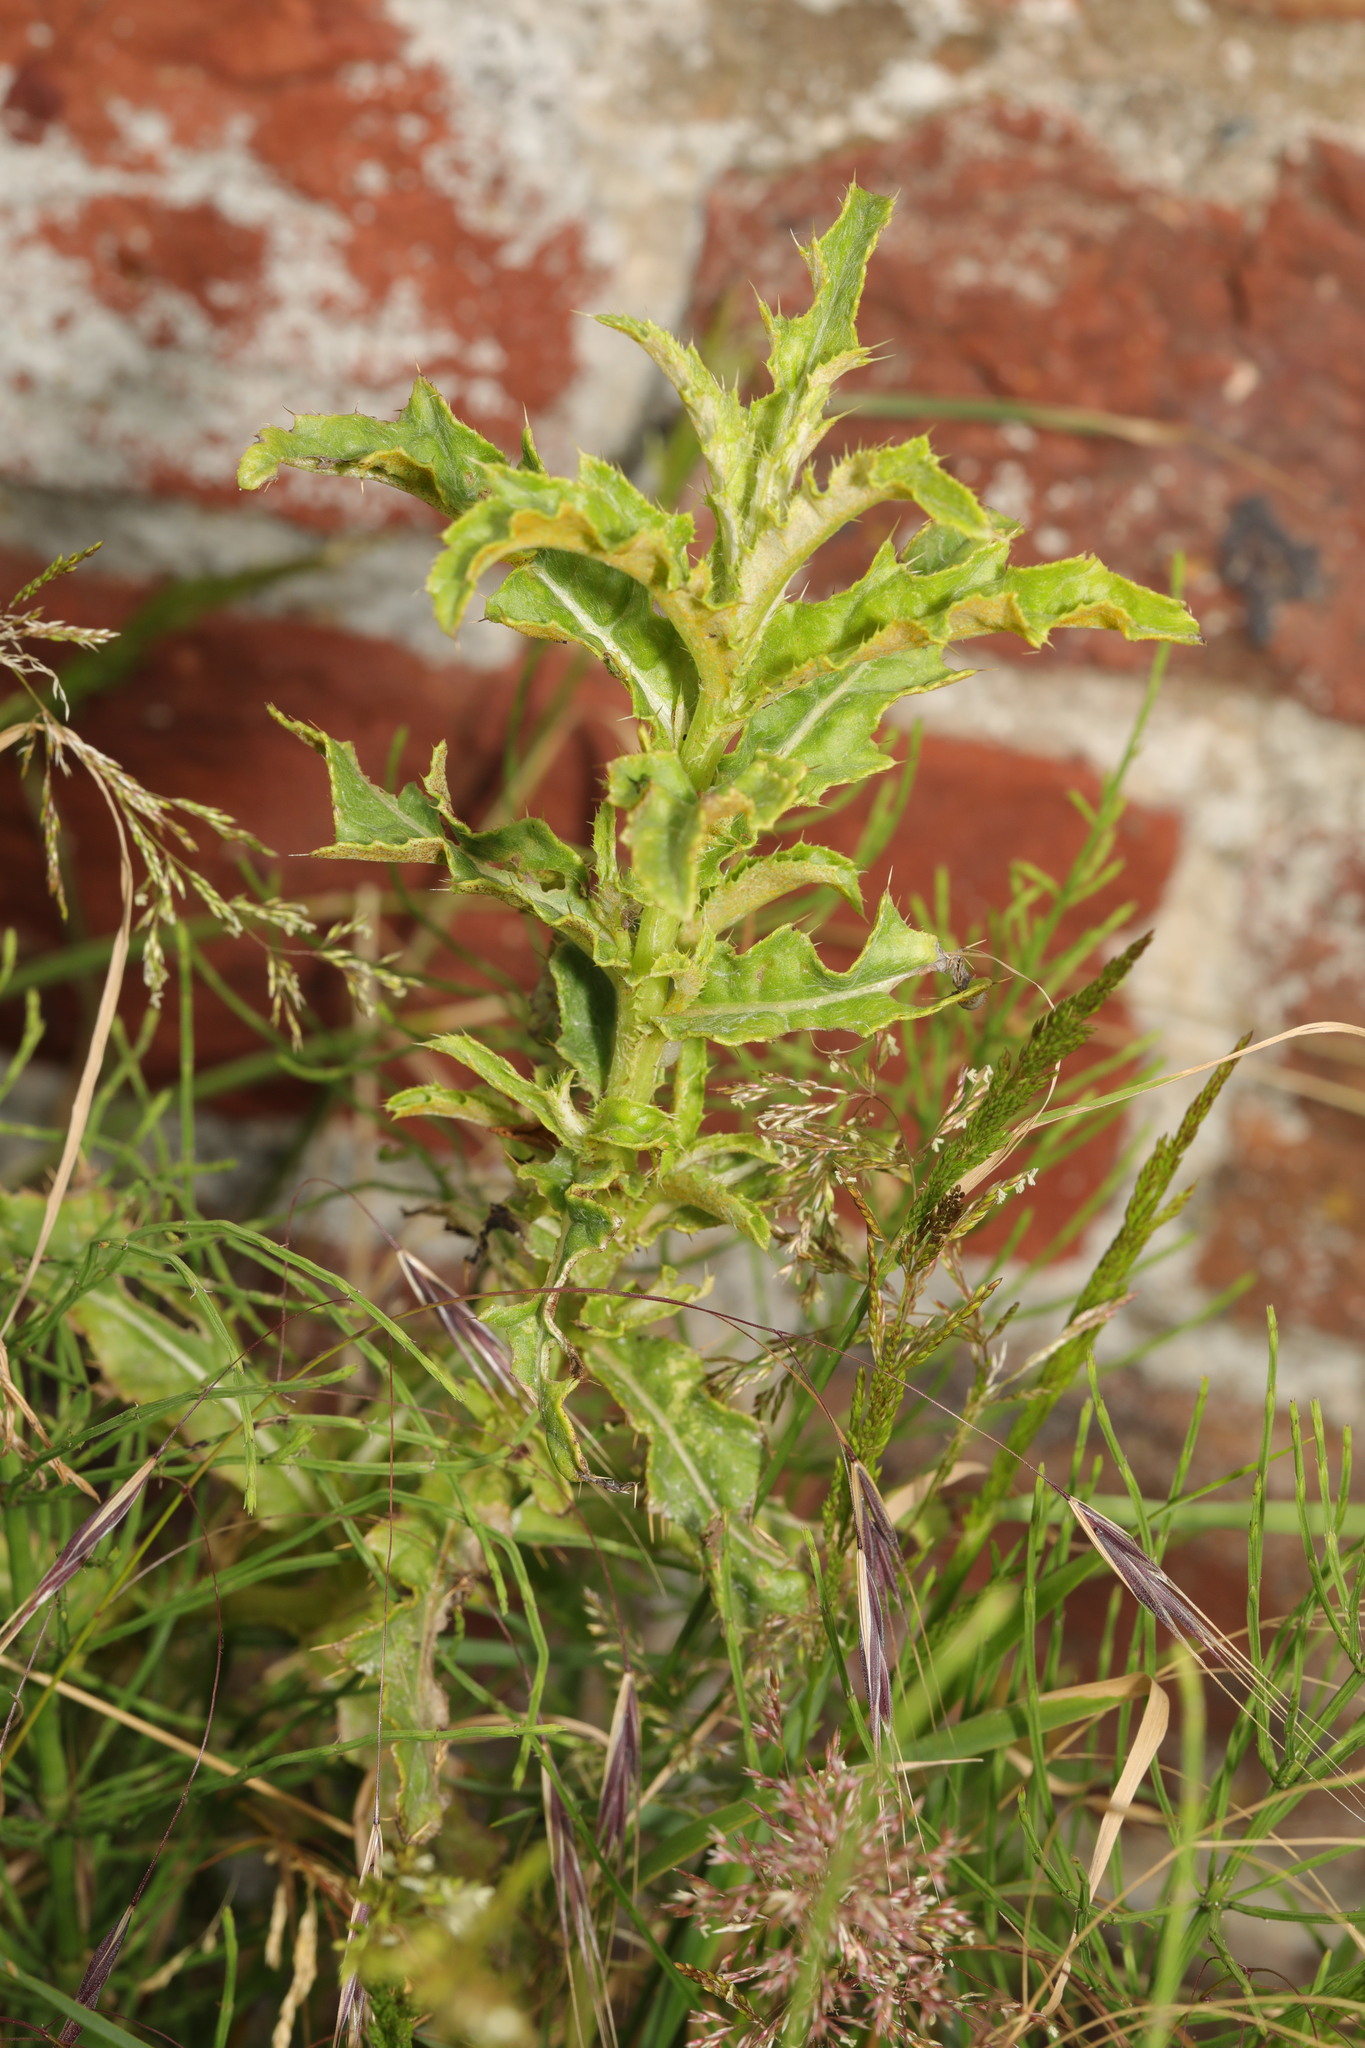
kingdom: Plantae
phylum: Tracheophyta
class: Magnoliopsida
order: Asterales
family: Asteraceae
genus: Cirsium
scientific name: Cirsium arvense
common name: Creeping thistle
